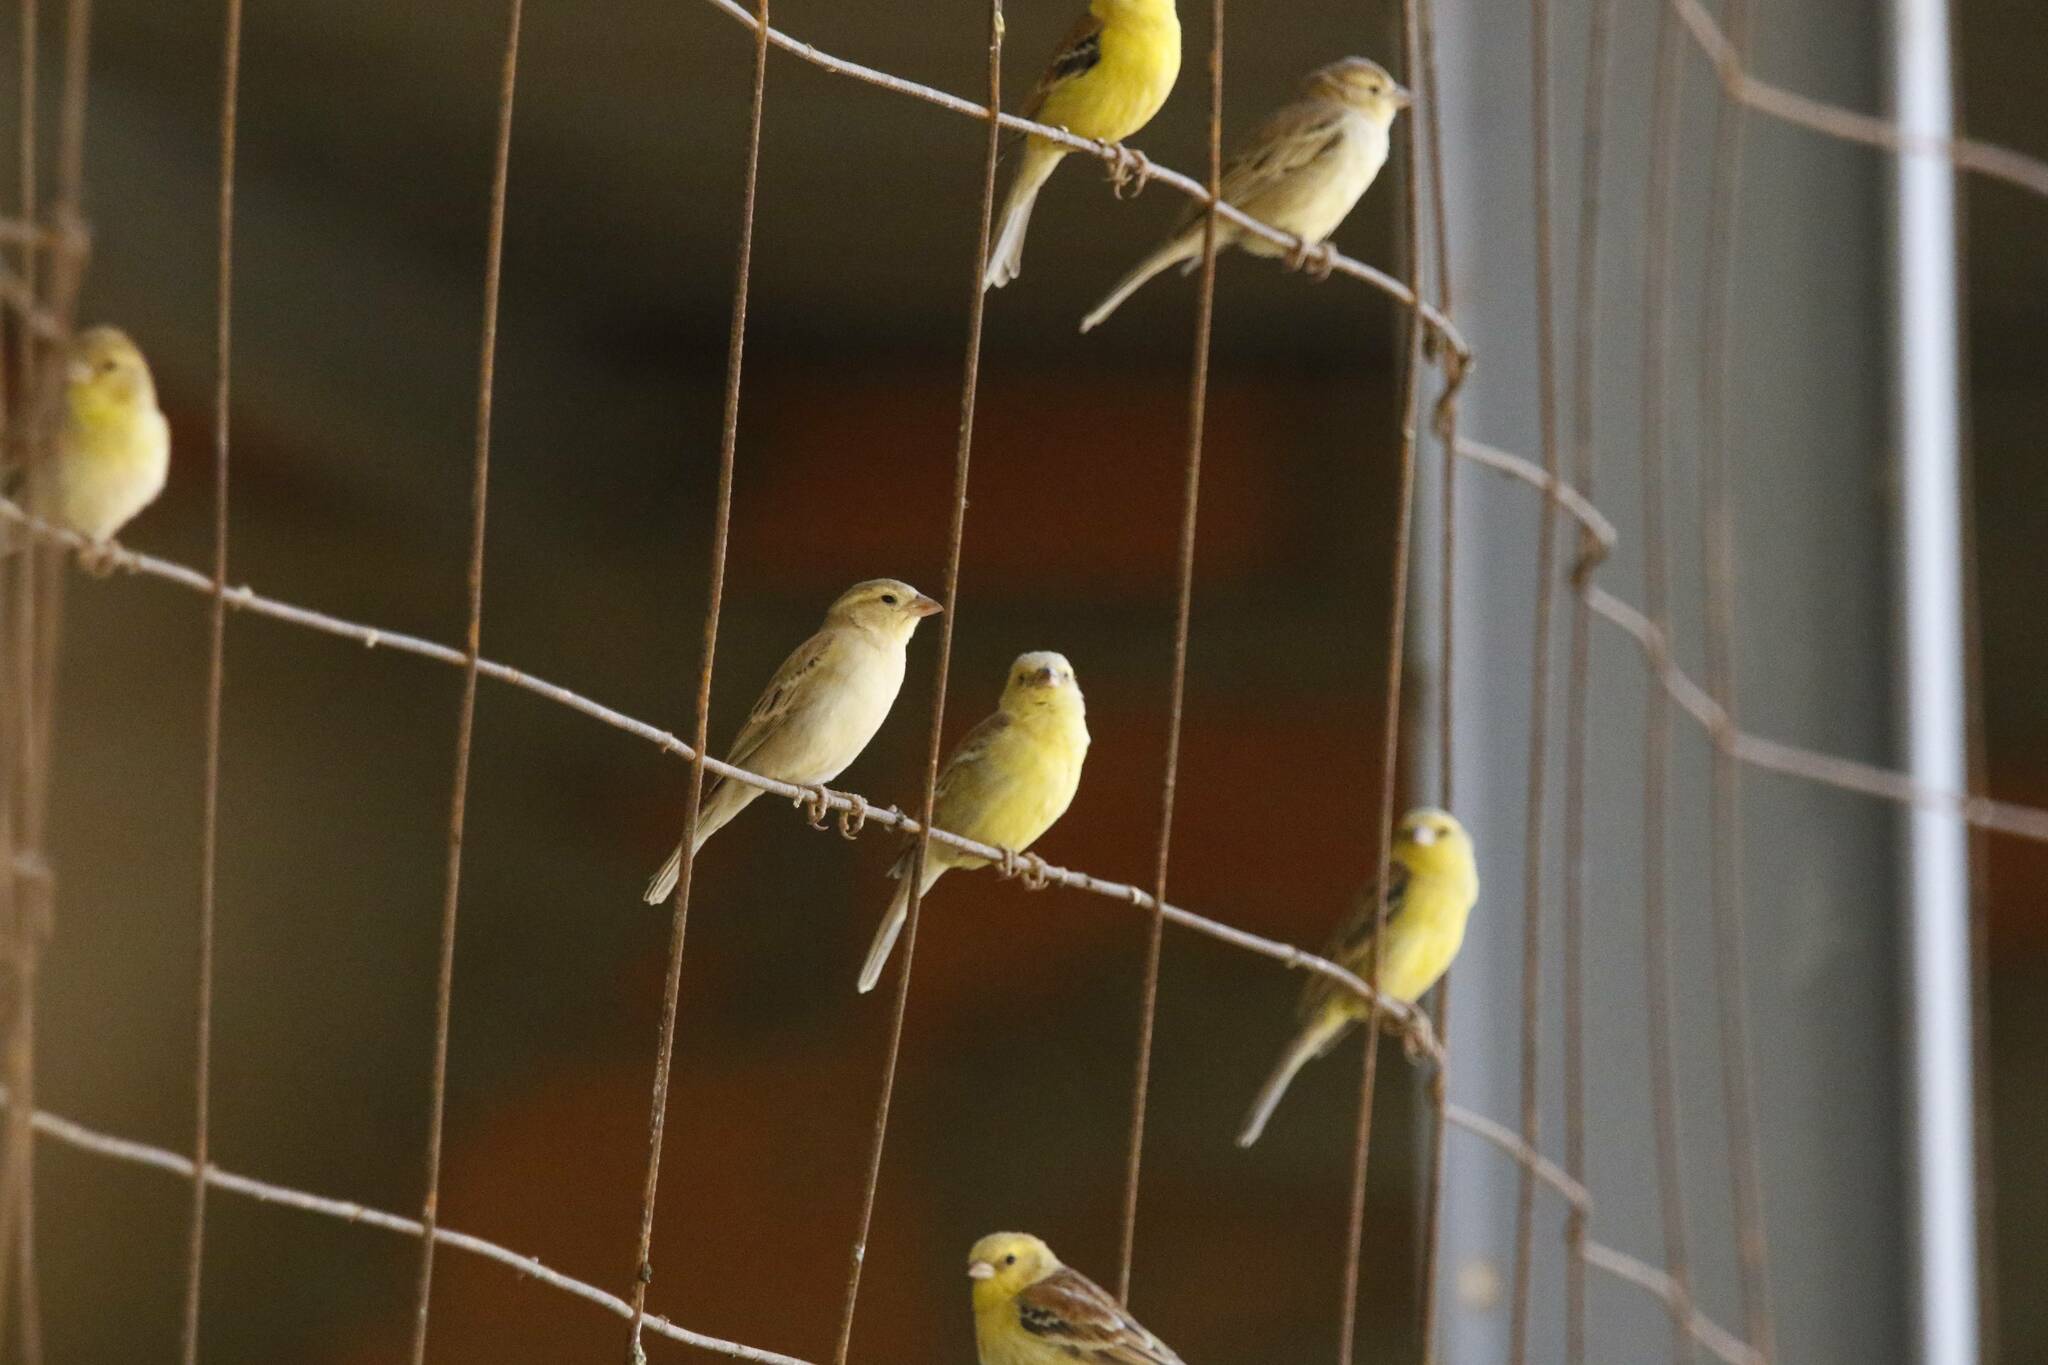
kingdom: Animalia
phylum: Chordata
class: Aves
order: Passeriformes
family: Passeridae
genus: Passer
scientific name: Passer luteus
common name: Sudan golden sparrow
